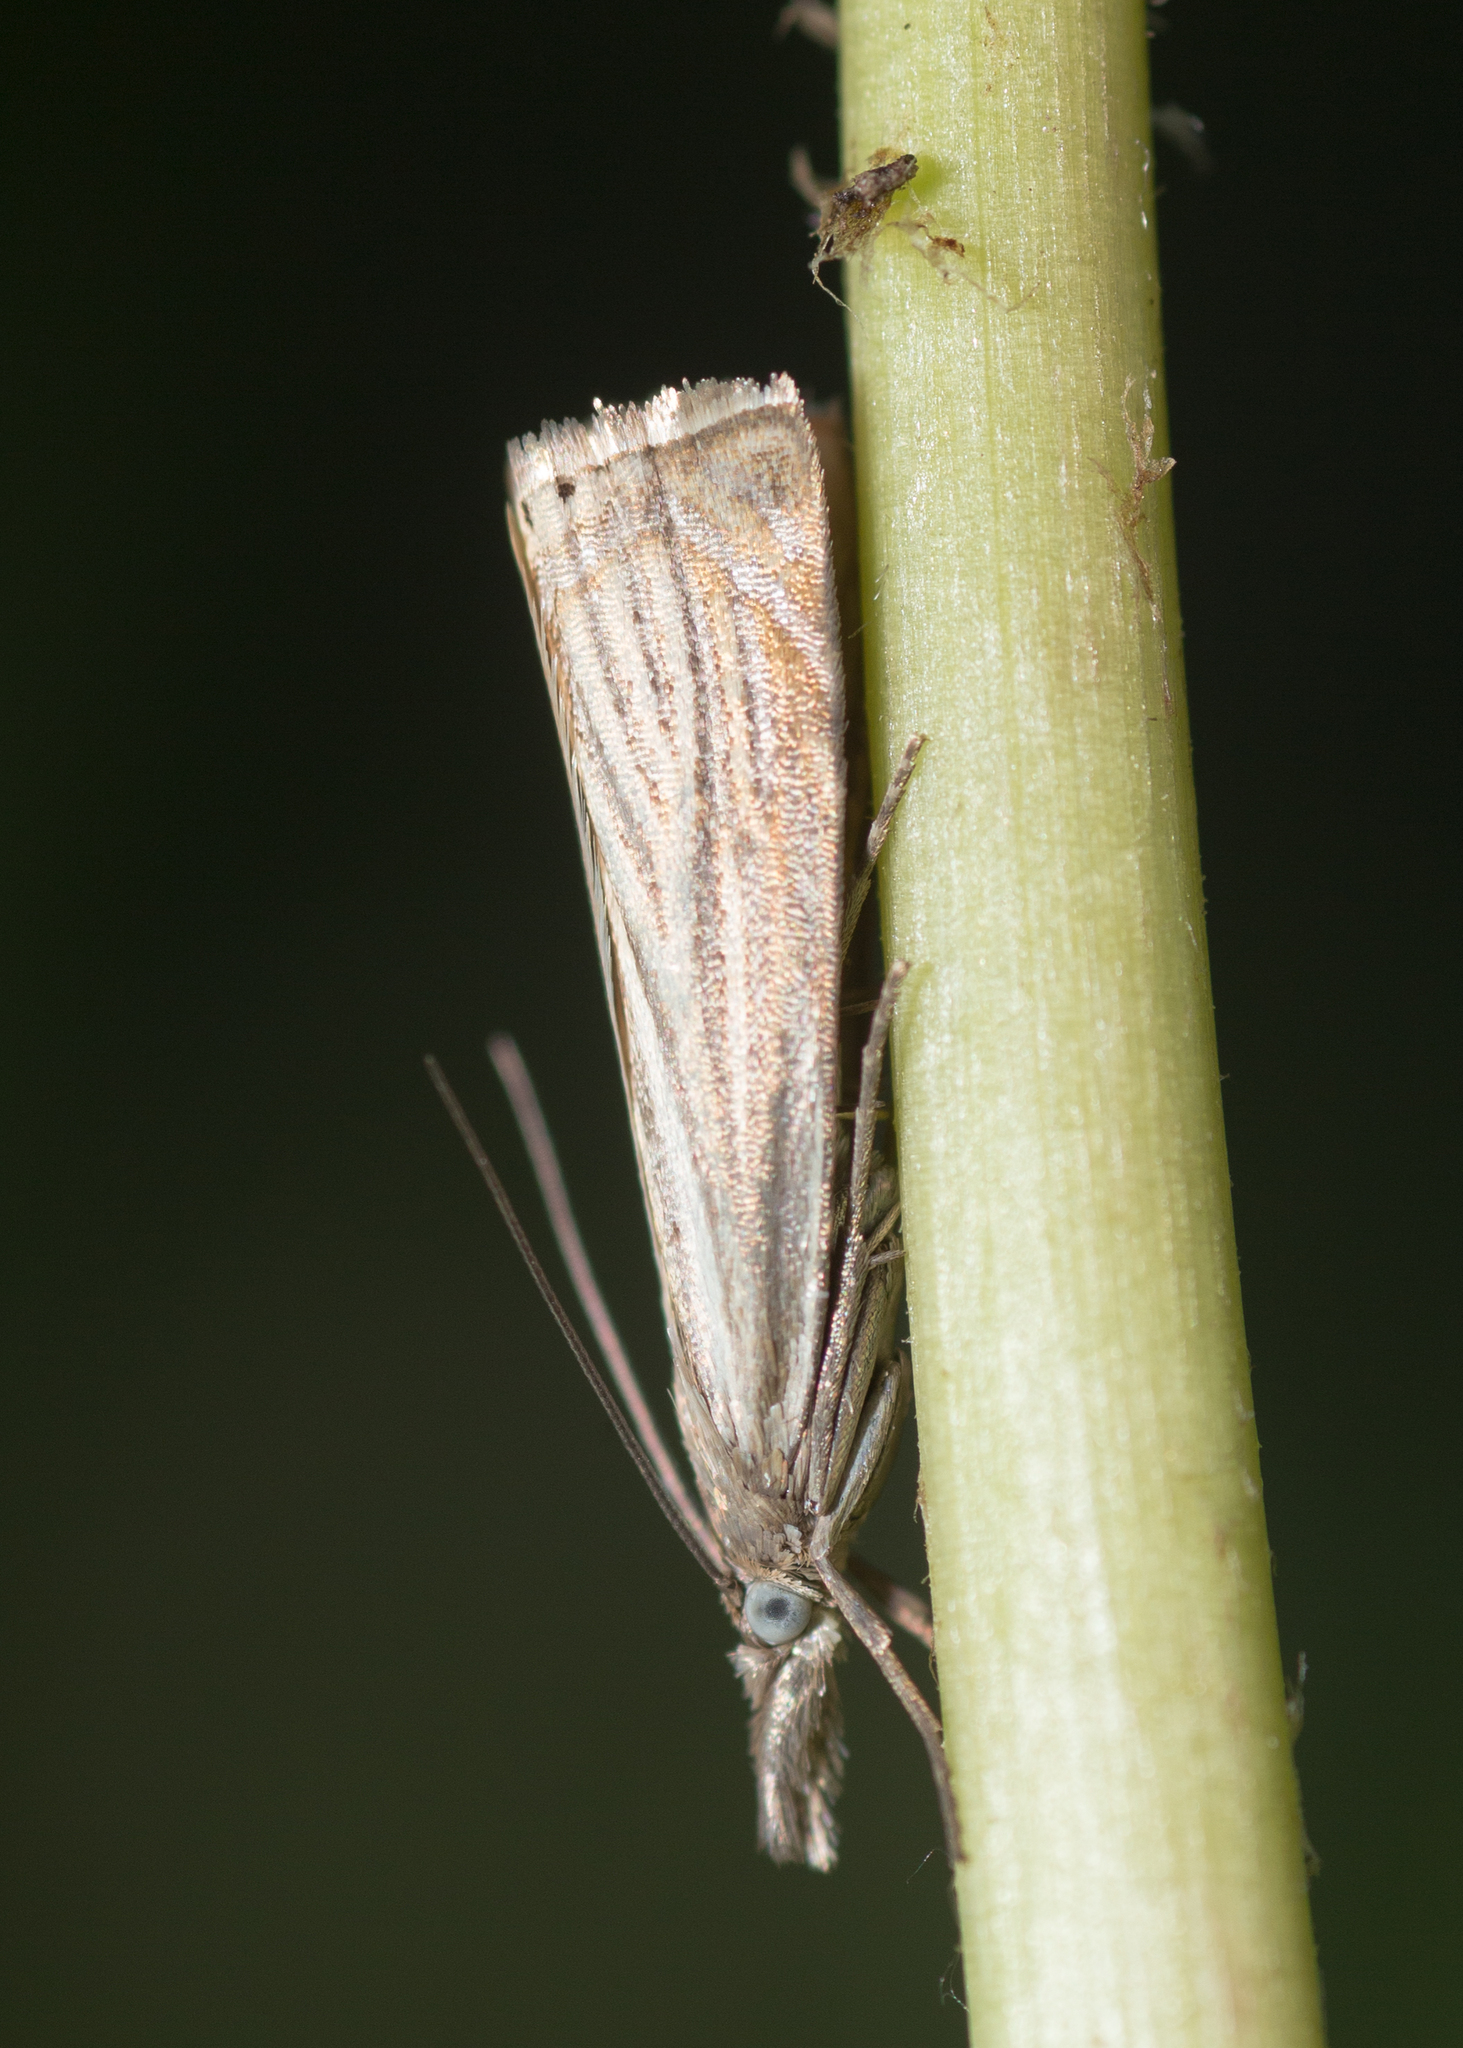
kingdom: Animalia
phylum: Arthropoda
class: Insecta
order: Lepidoptera
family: Crambidae
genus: Chrysoteuchia
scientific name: Chrysoteuchia culmella
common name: Garden grass-veneer
